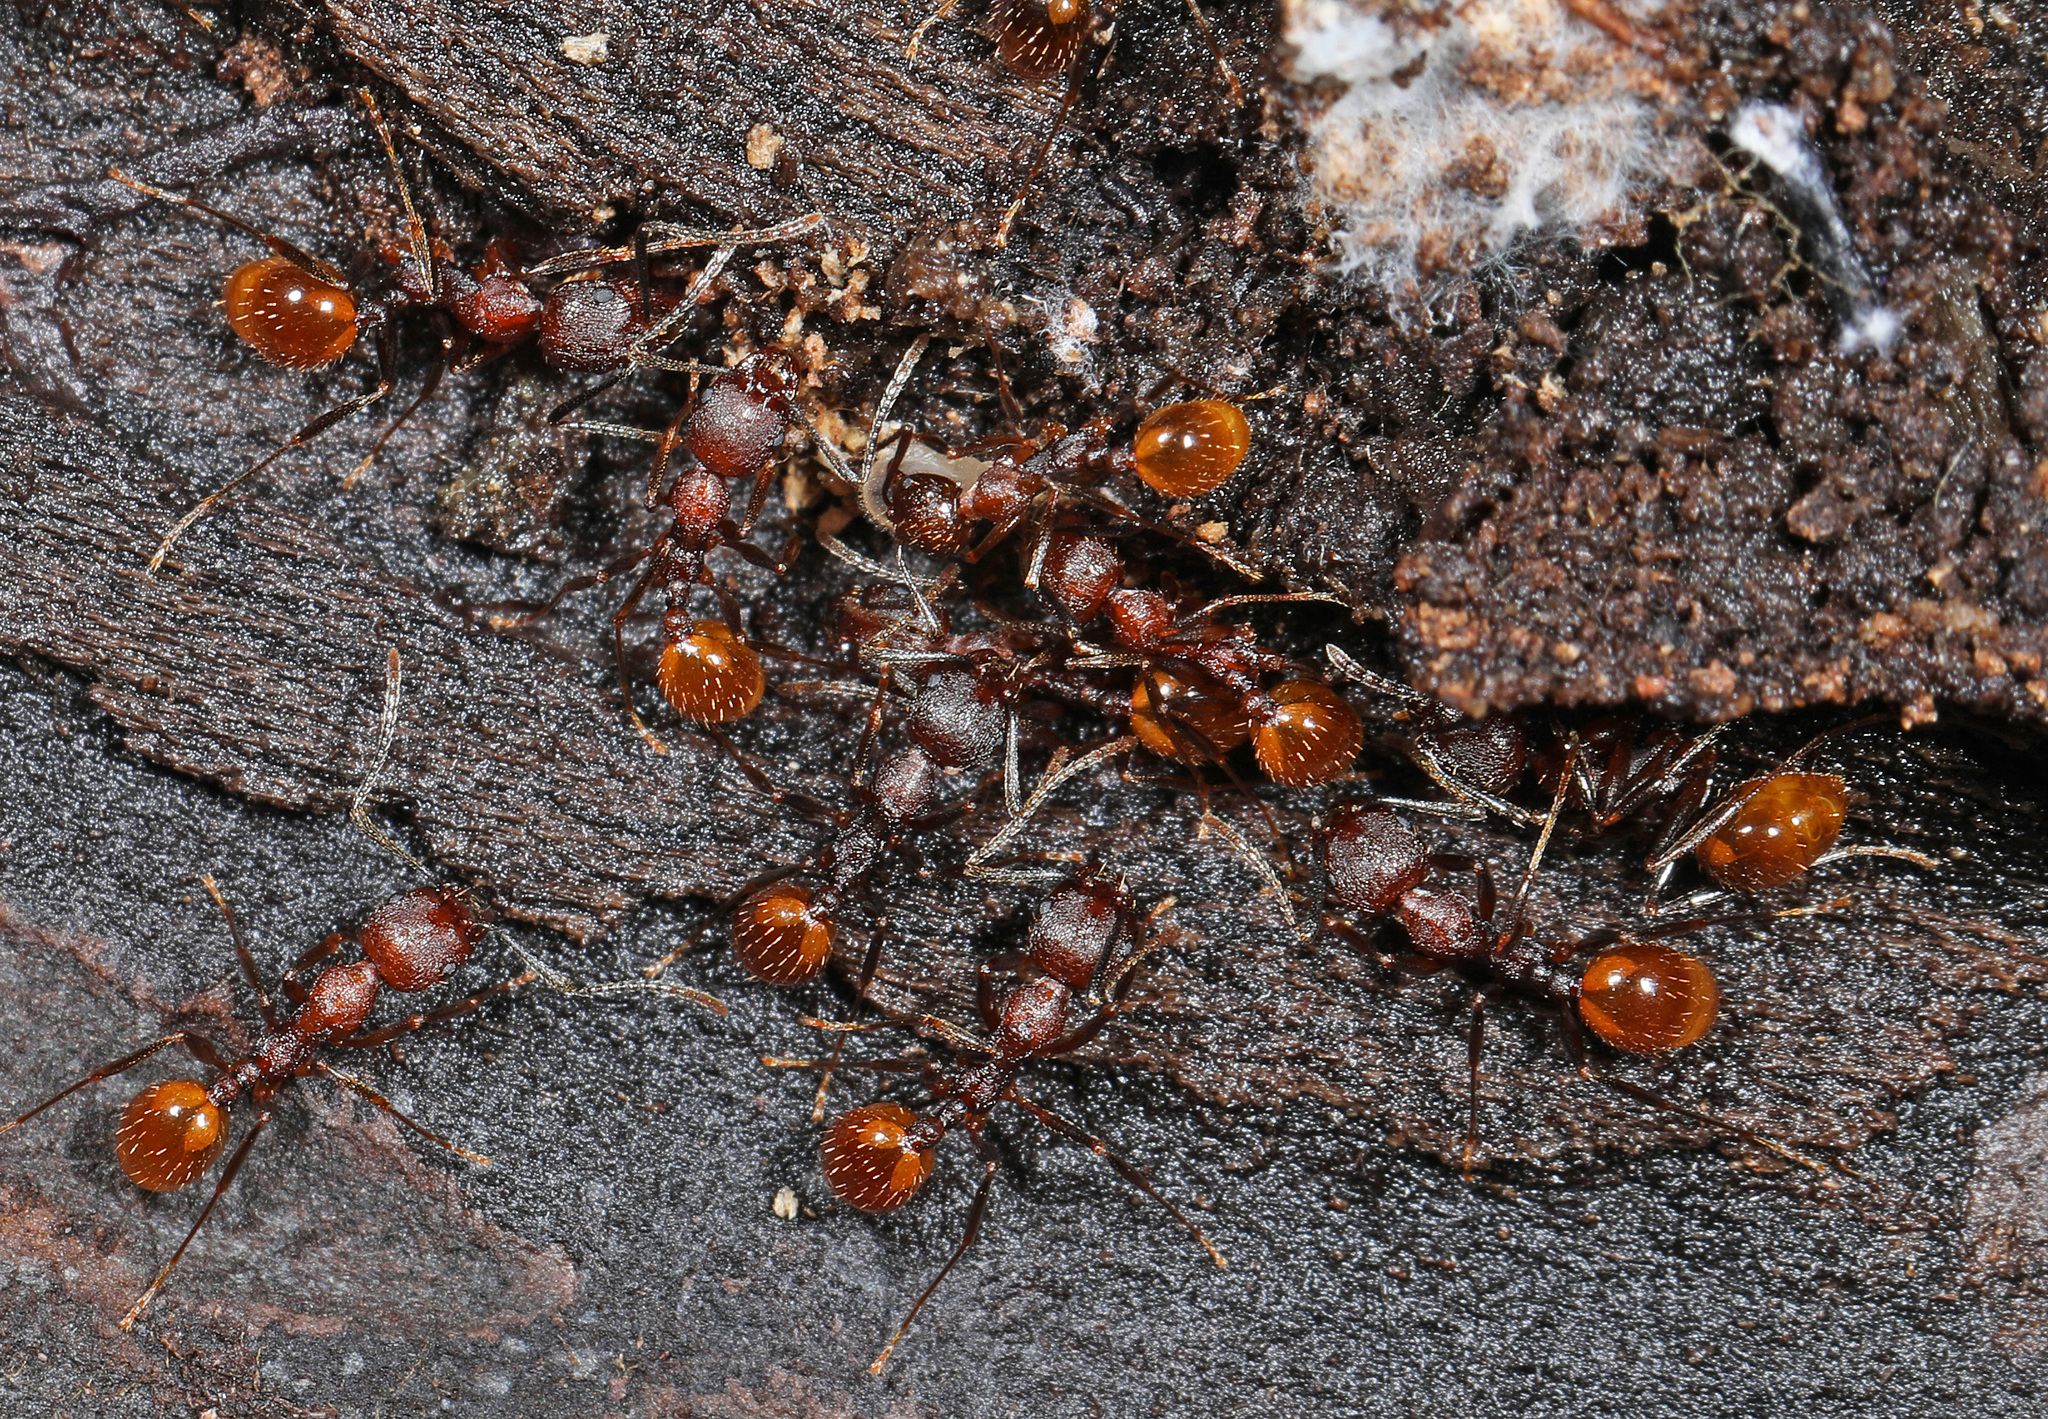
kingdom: Animalia
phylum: Arthropoda
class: Insecta
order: Hymenoptera
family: Formicidae
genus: Aphaenogaster
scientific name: Aphaenogaster lamellidens
